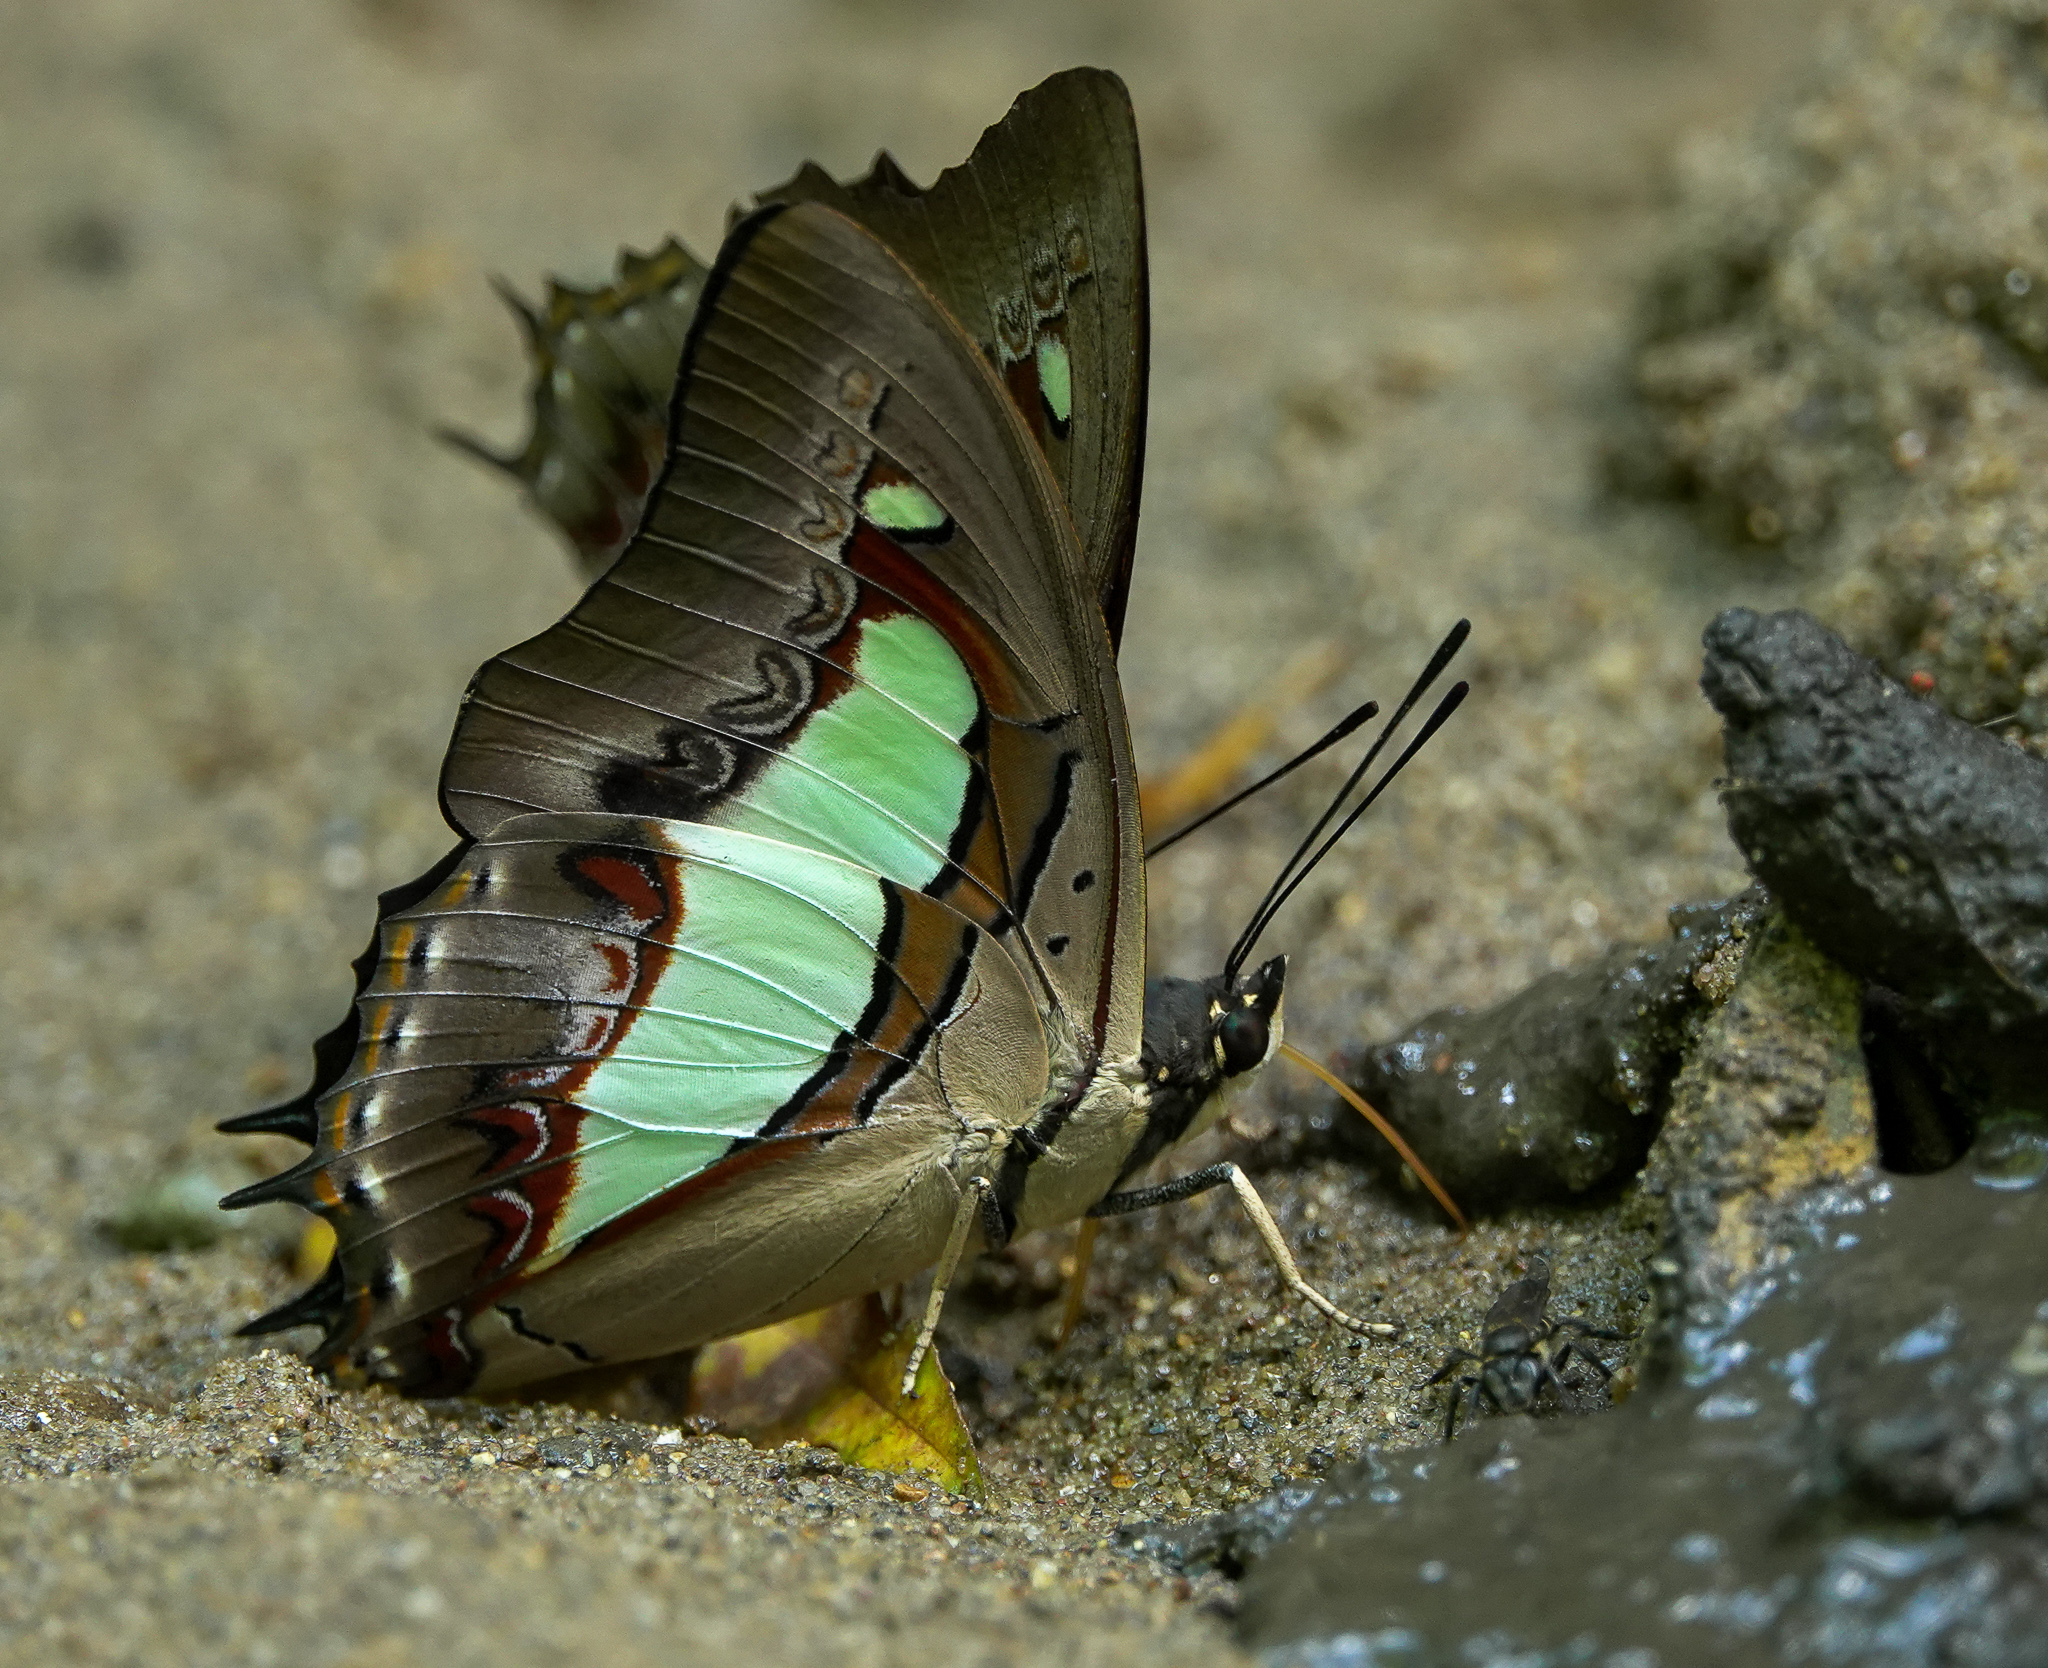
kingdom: Animalia
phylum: Arthropoda
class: Insecta
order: Lepidoptera
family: Nymphalidae
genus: Polyura
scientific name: Polyura
